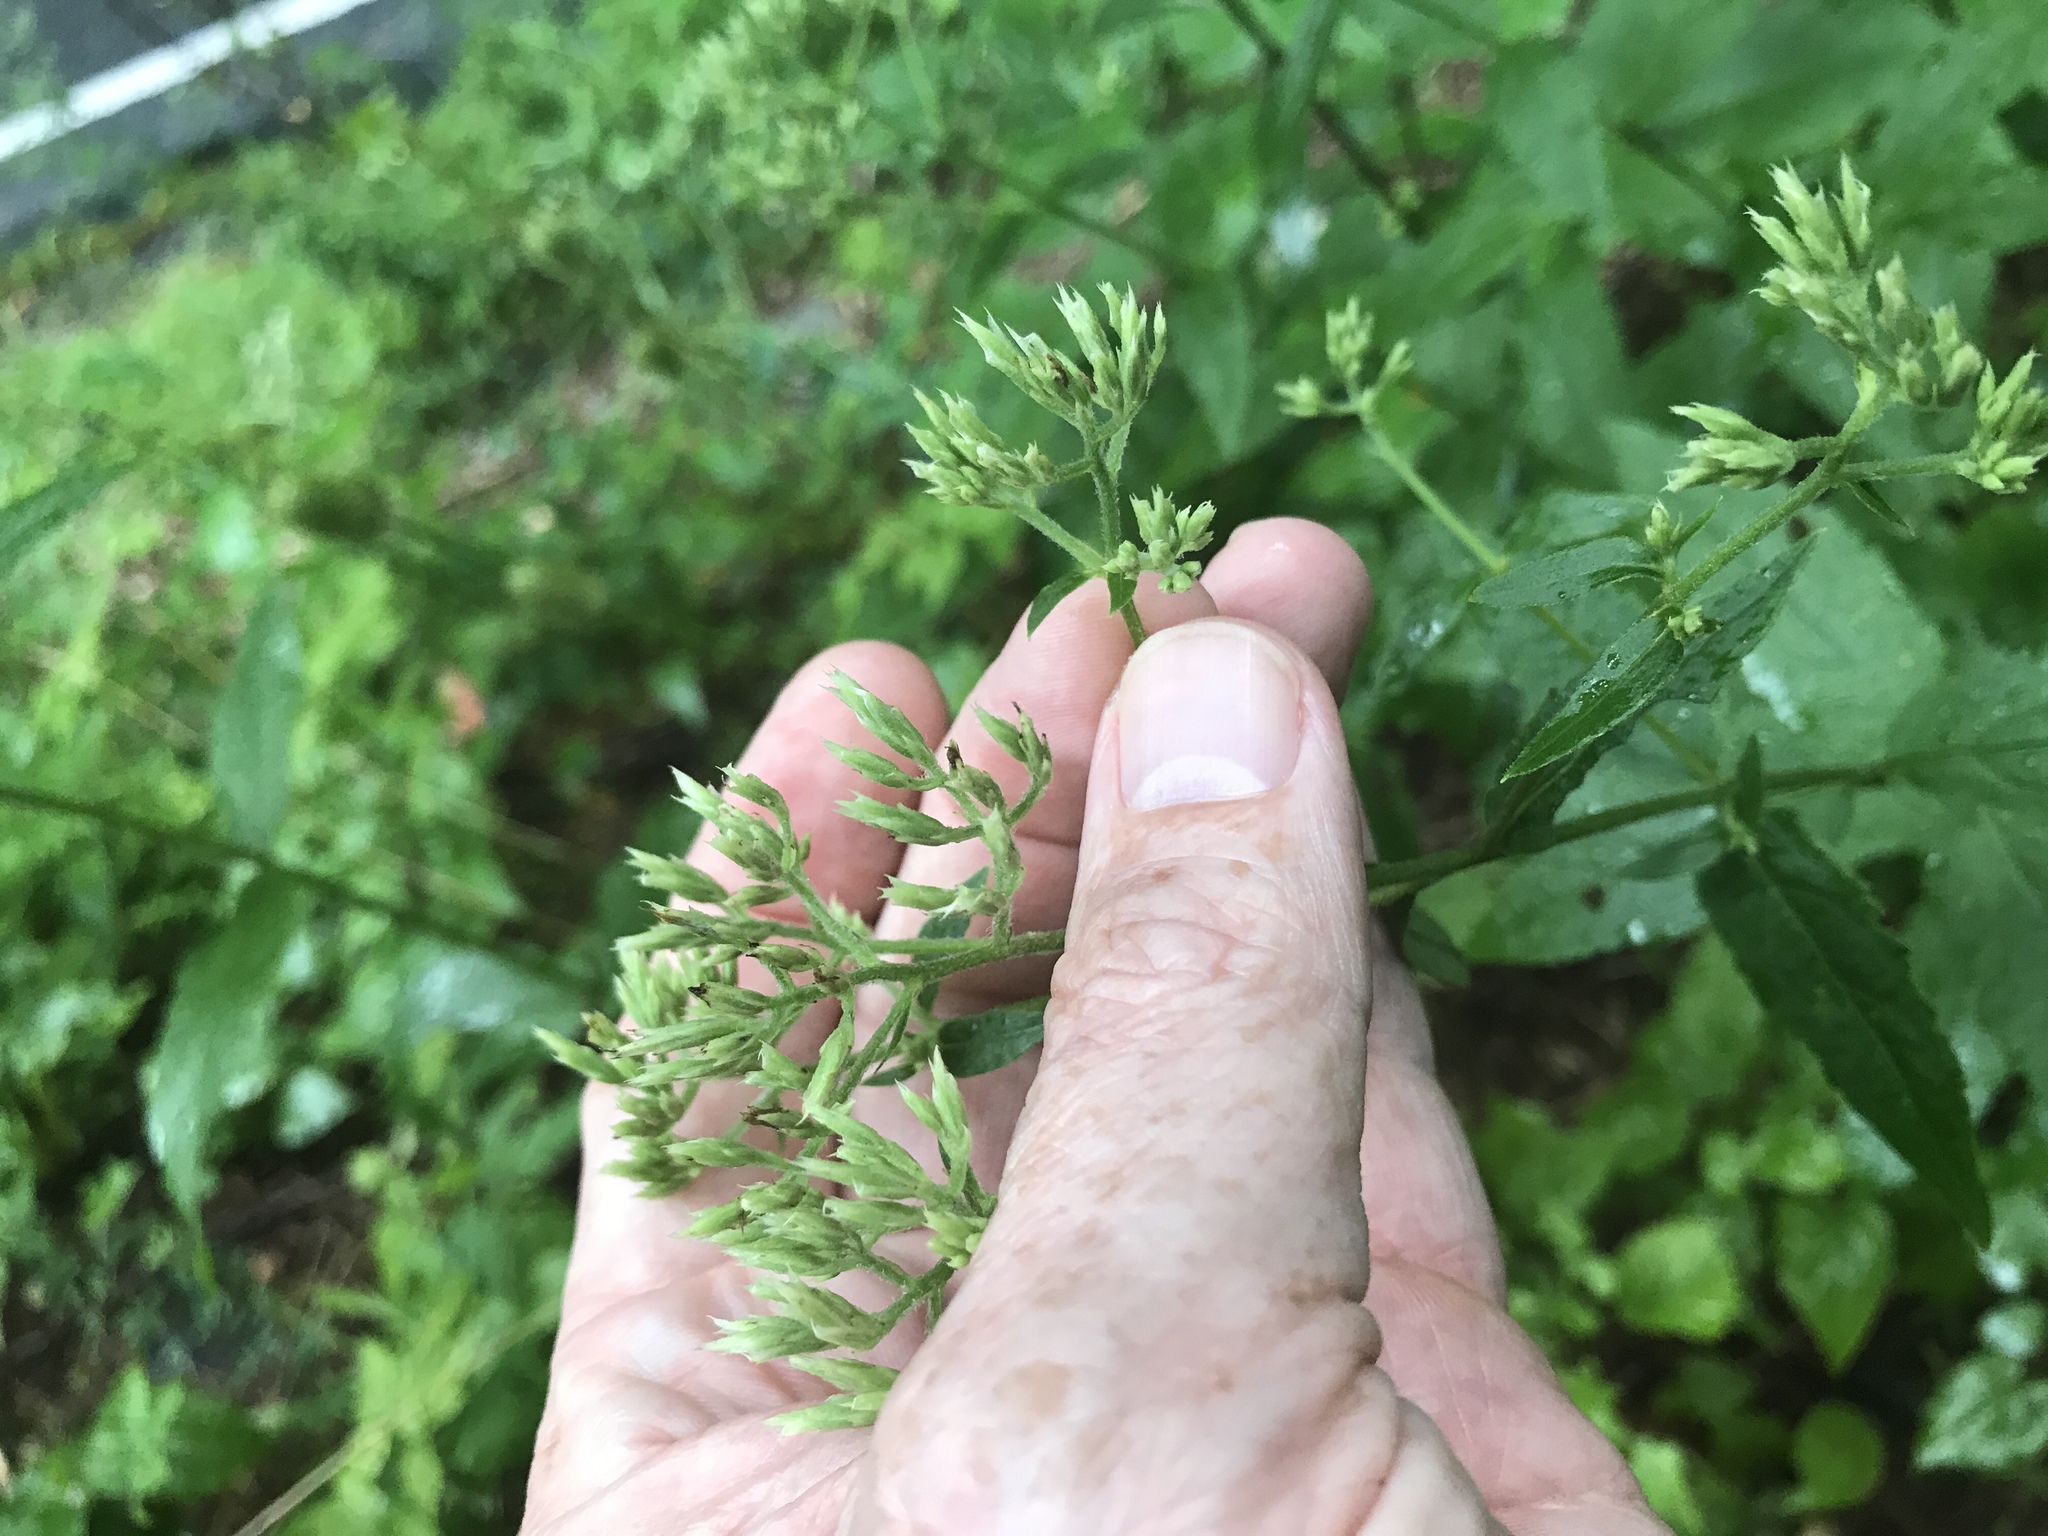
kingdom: Plantae
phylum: Tracheophyta
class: Magnoliopsida
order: Asterales
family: Asteraceae
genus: Eupatorium
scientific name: Eupatorium album
